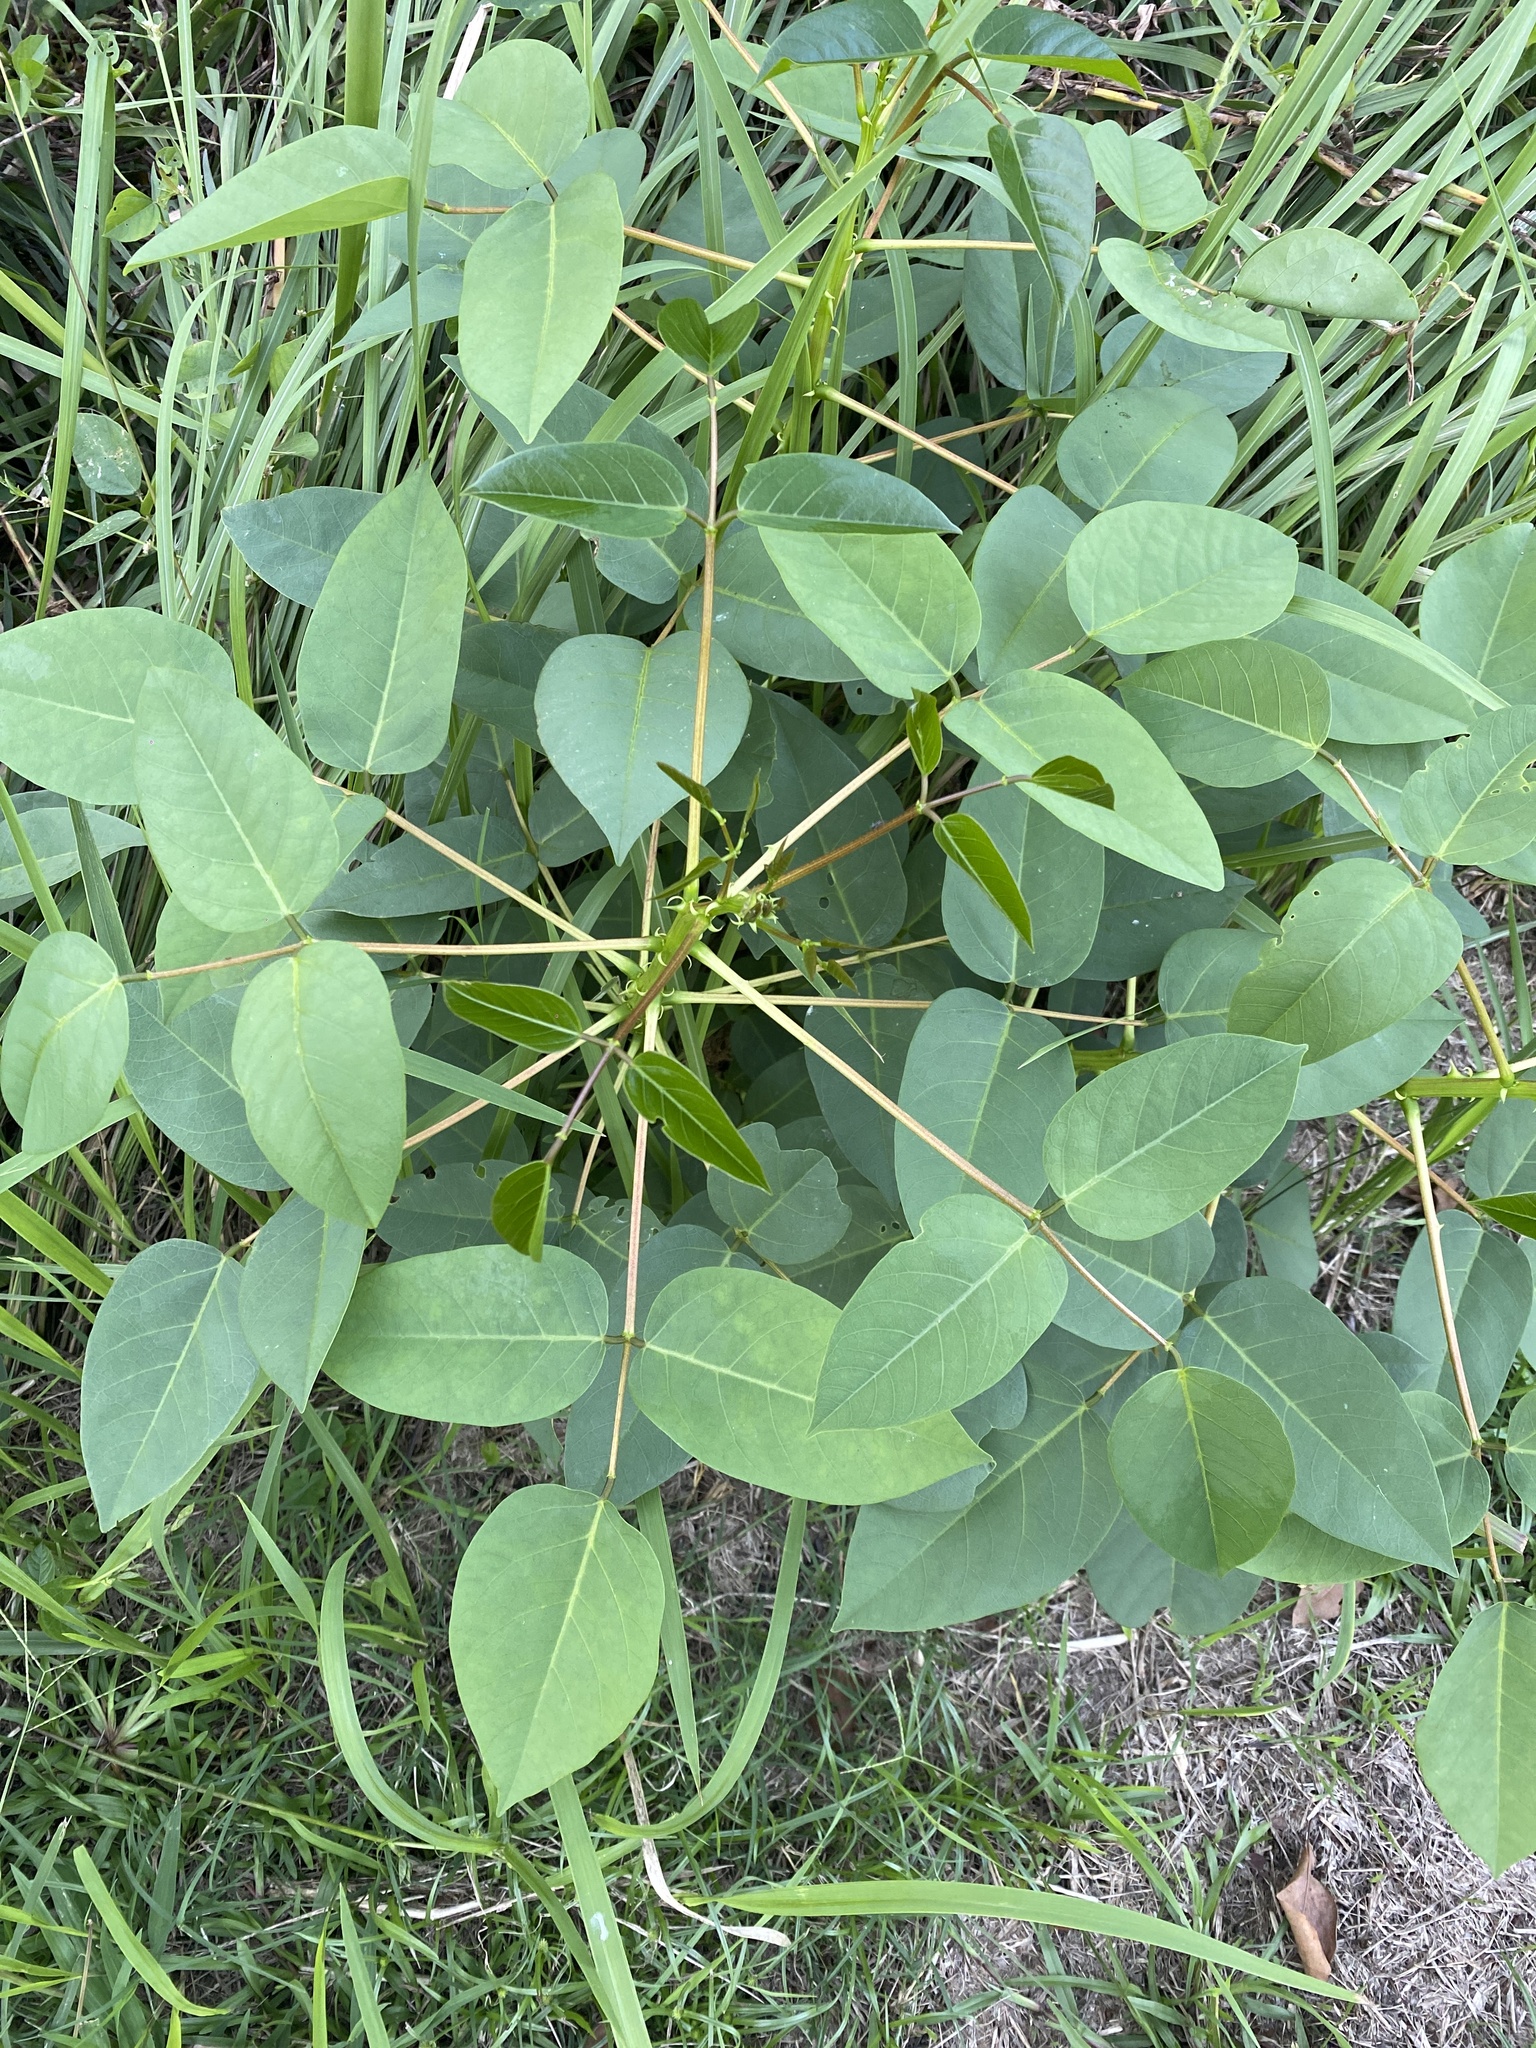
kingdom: Plantae
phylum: Tracheophyta
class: Magnoliopsida
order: Fabales
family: Fabaceae
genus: Erythrina
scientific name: Erythrina crista-galli
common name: Cockspur coral tree
